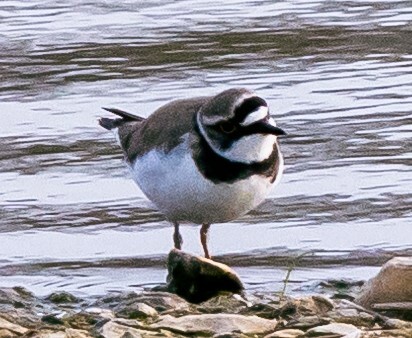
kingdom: Animalia
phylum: Chordata
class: Aves
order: Charadriiformes
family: Charadriidae
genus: Charadrius
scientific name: Charadrius hiaticula
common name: Common ringed plover
